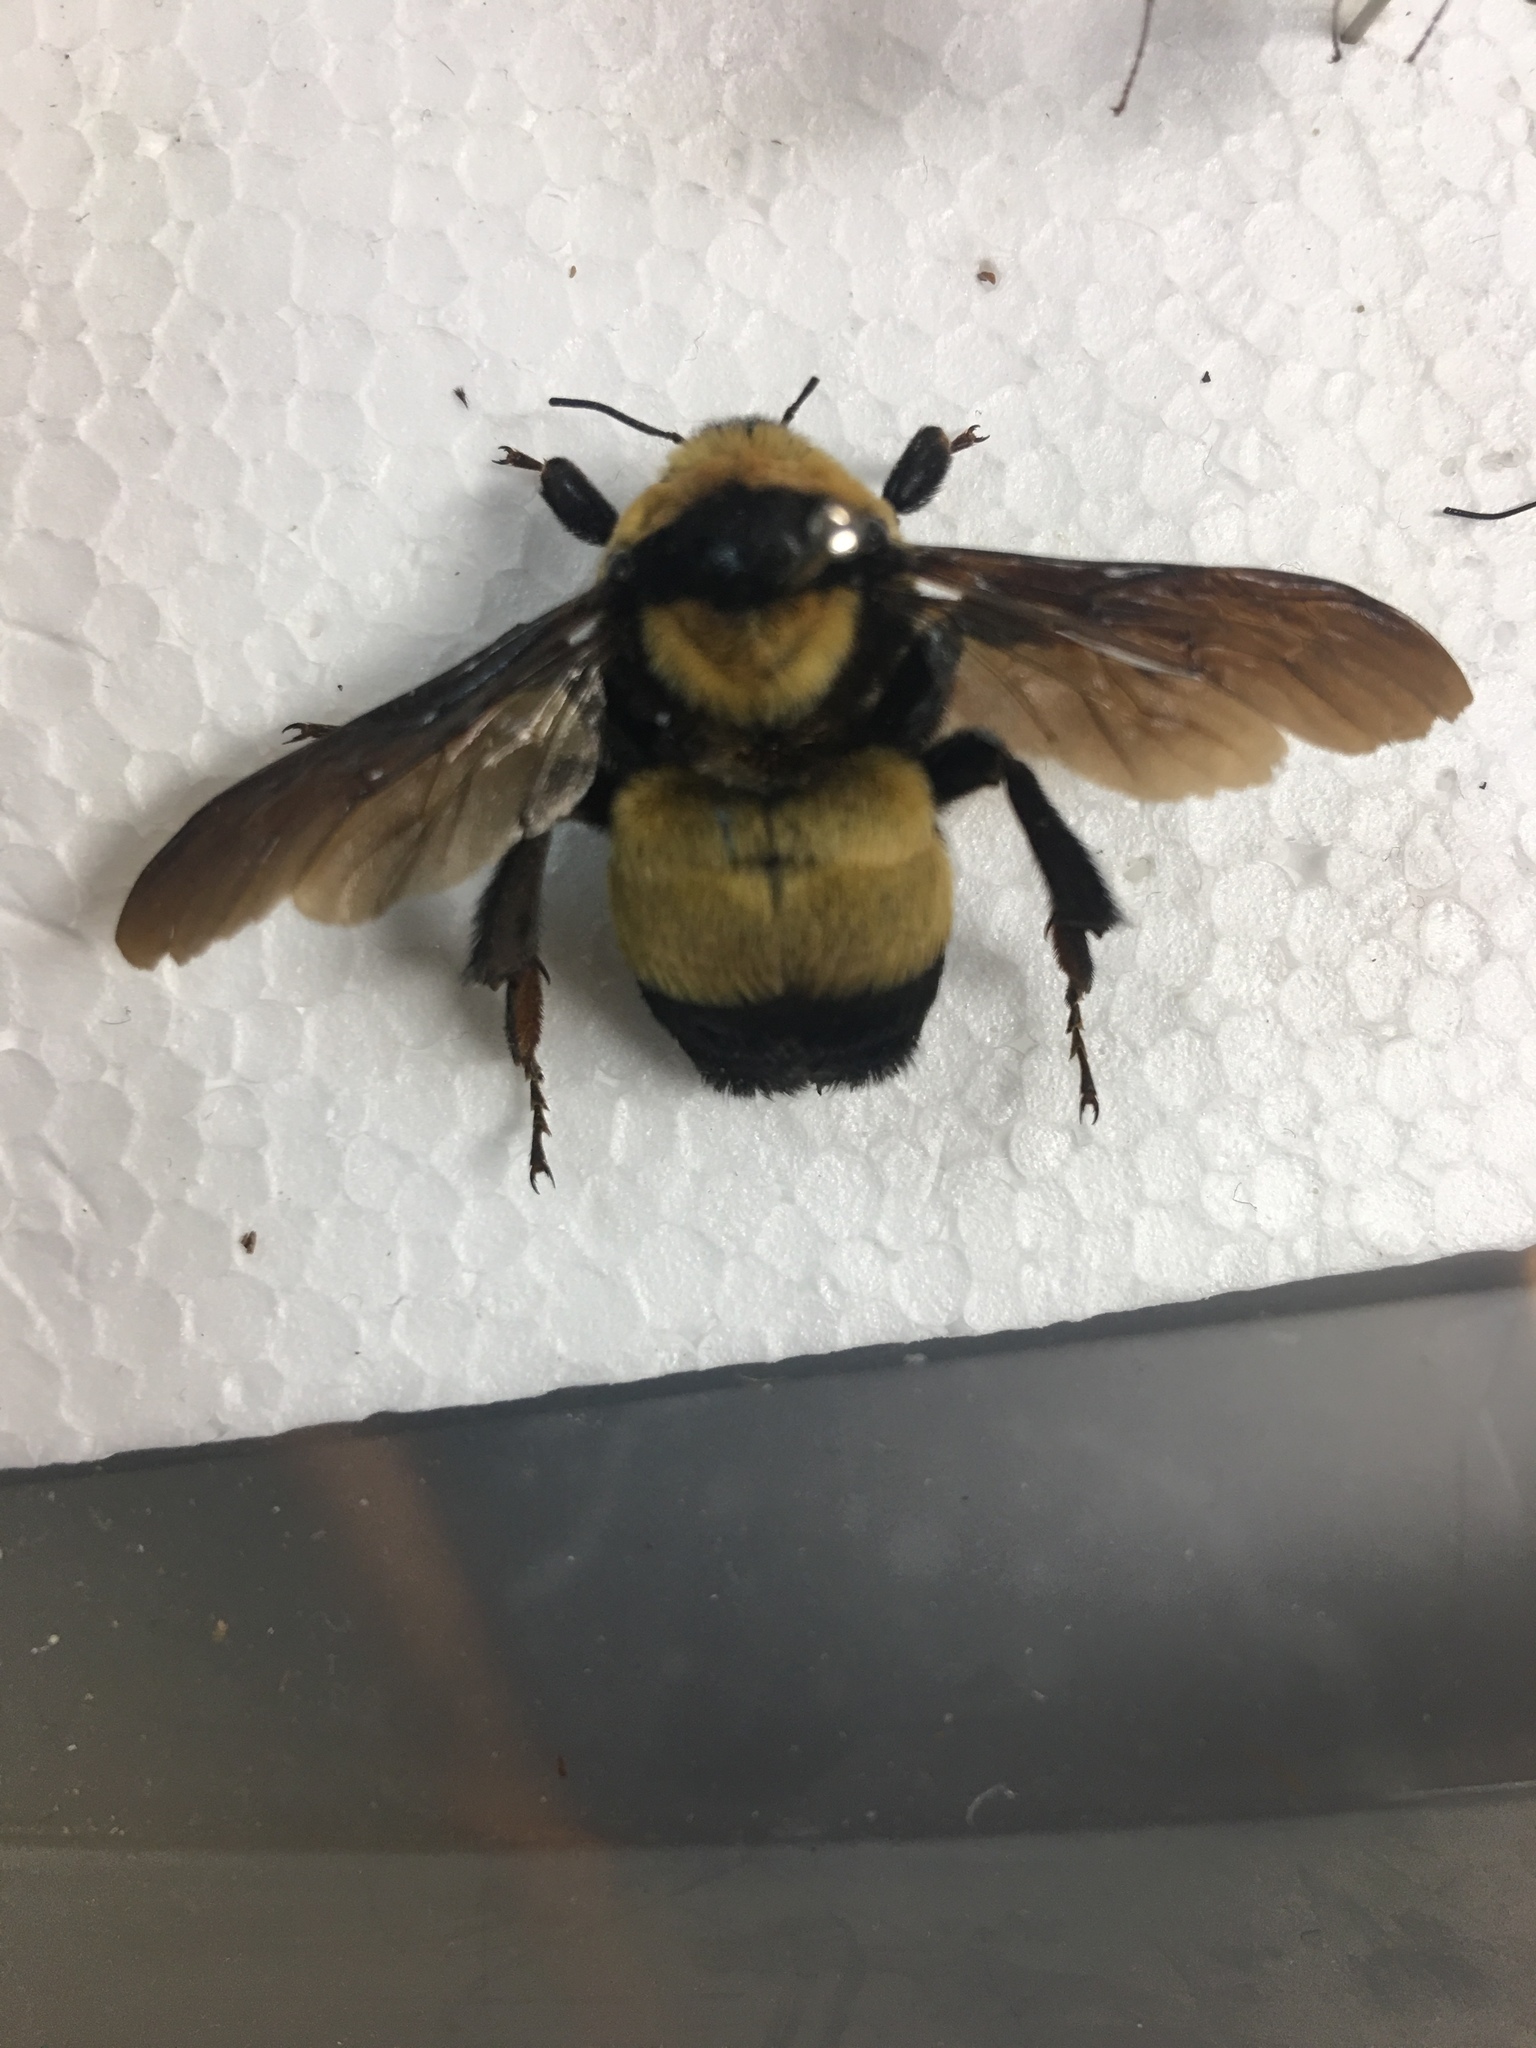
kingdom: Animalia
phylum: Arthropoda
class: Insecta
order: Hymenoptera
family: Apidae
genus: Bombus
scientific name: Bombus fraternus
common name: Southern plains bumble bee
